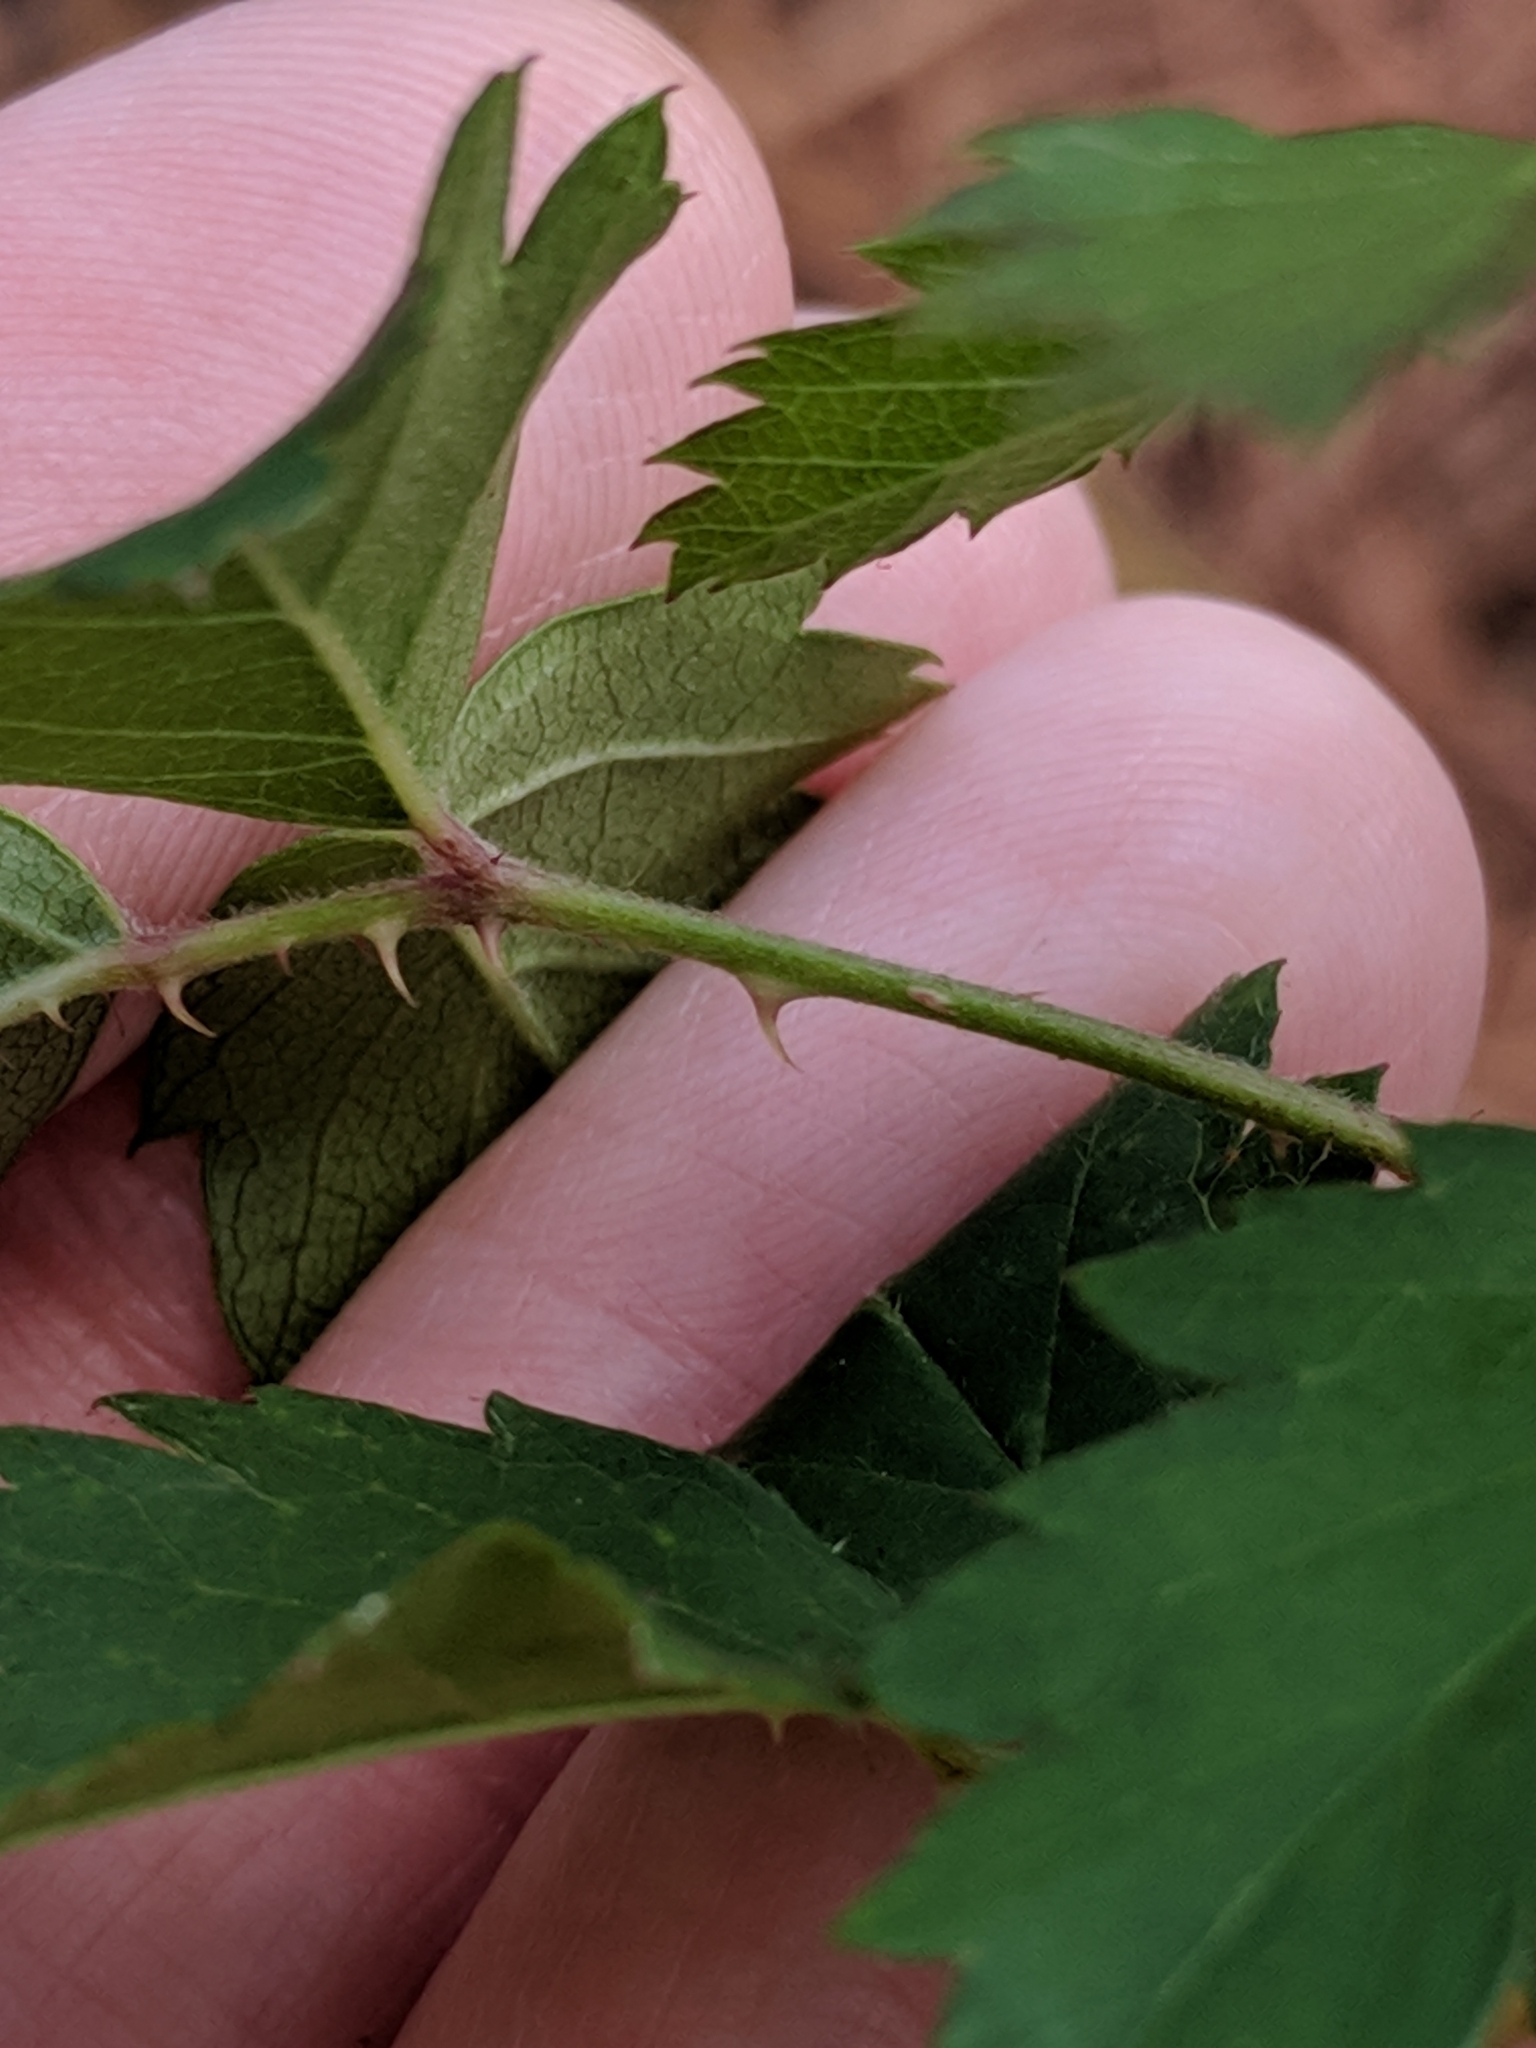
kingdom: Plantae
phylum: Tracheophyta
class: Magnoliopsida
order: Rosales
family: Rosaceae
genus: Rubus
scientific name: Rubus trivialis
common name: Southern dewberry
